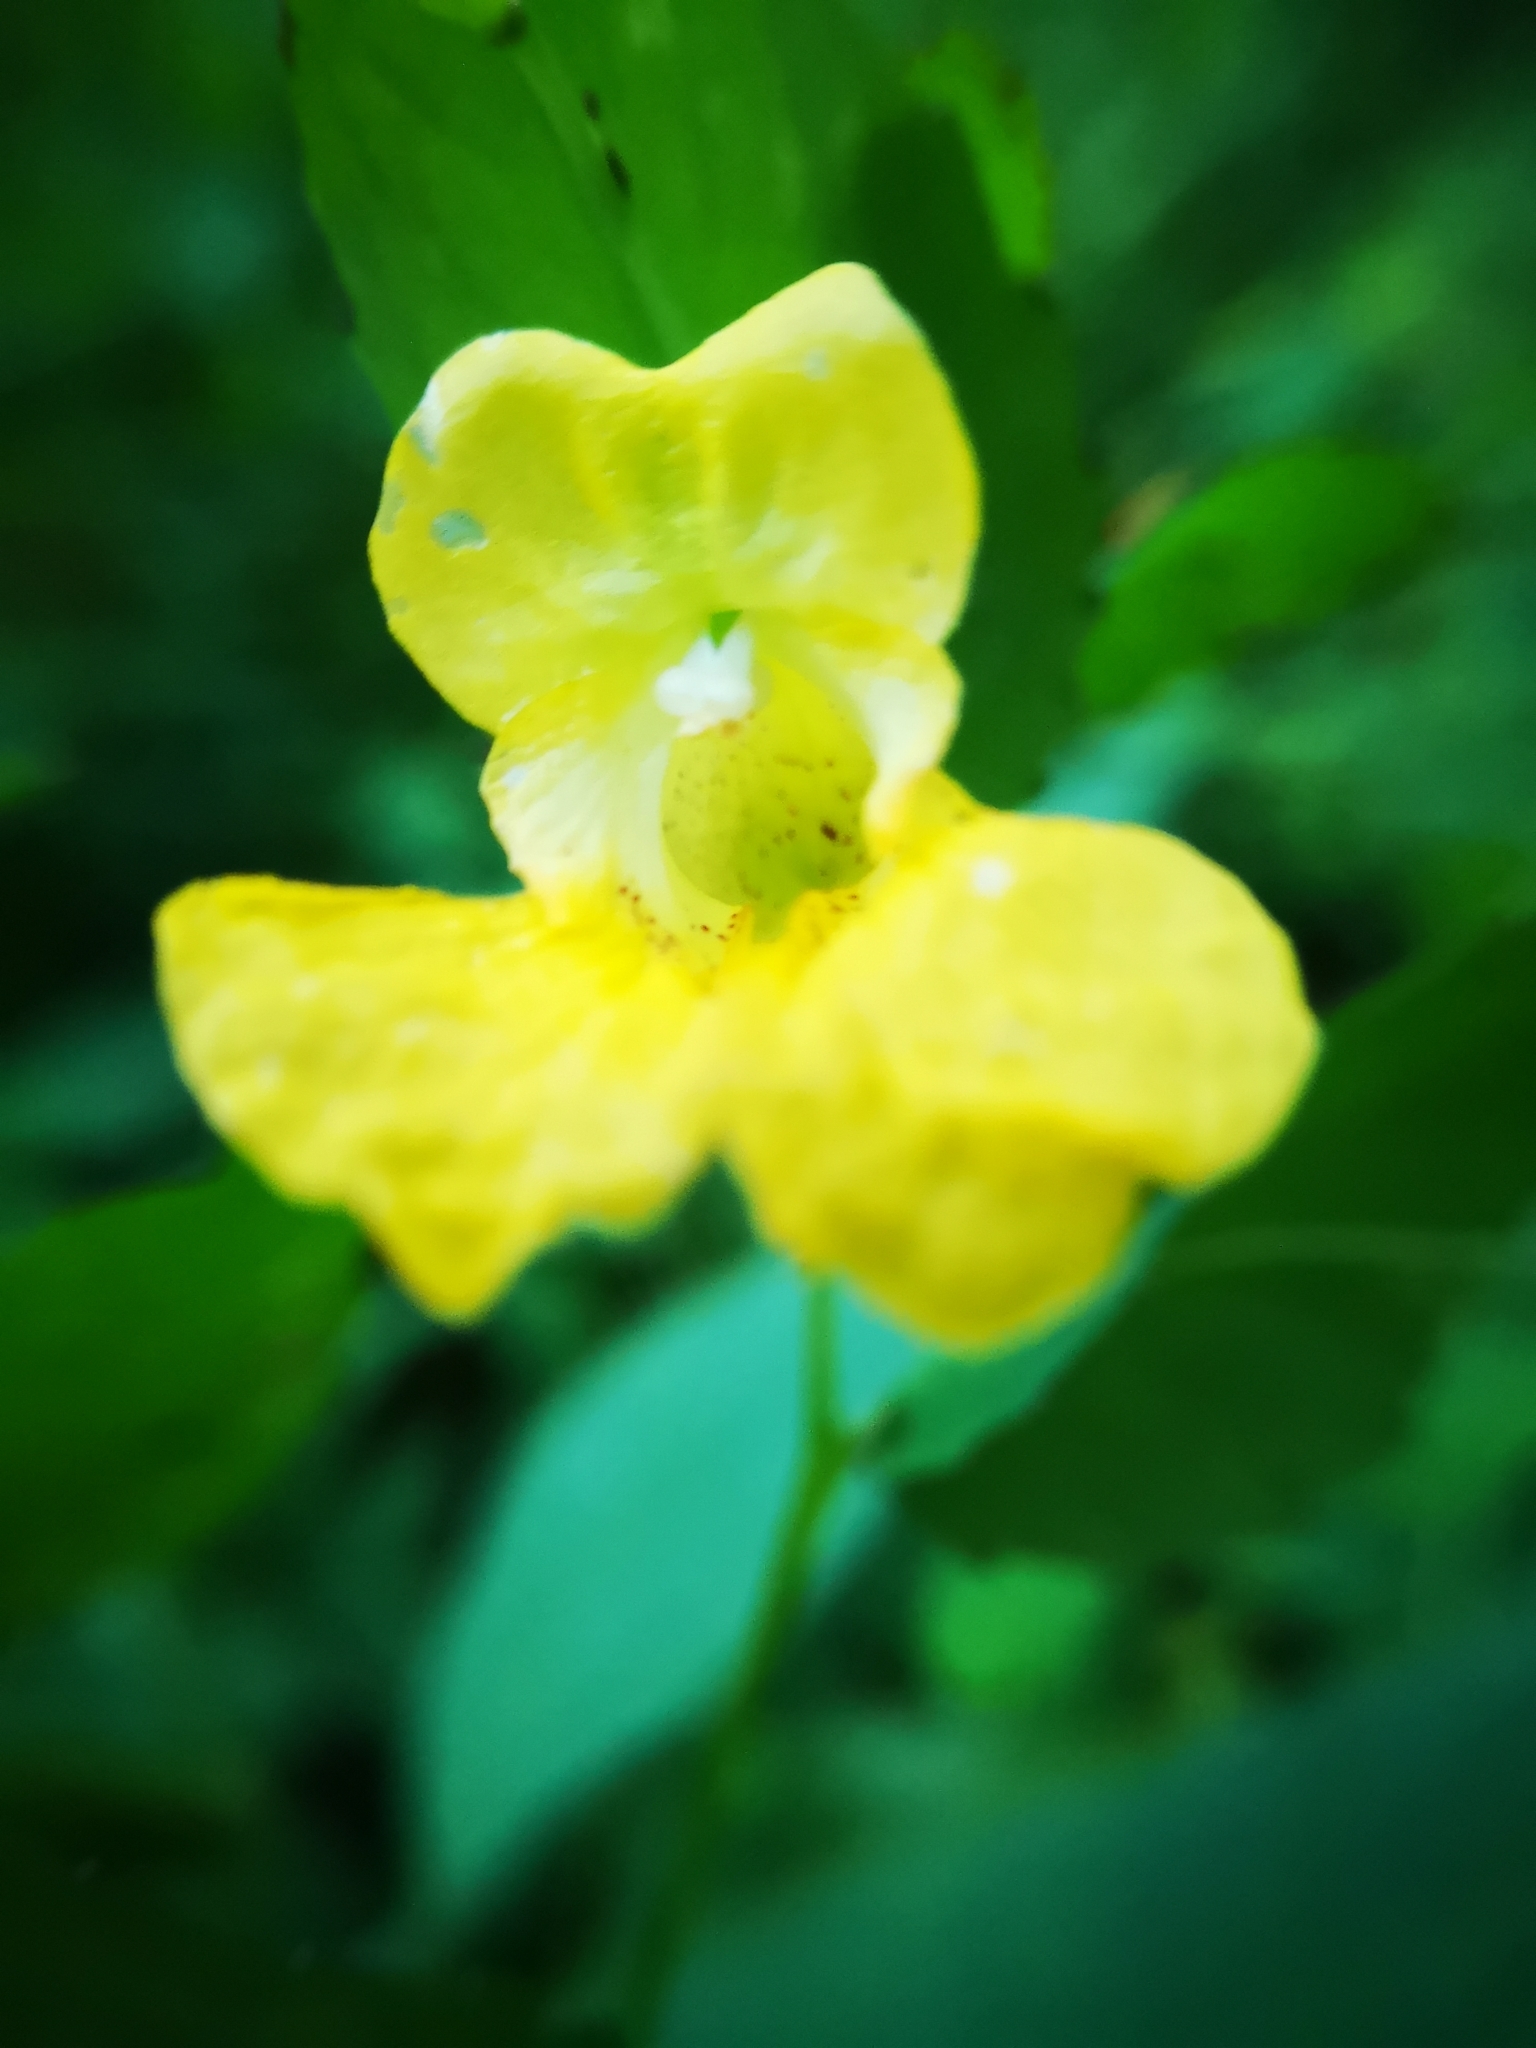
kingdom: Plantae
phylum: Tracheophyta
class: Magnoliopsida
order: Ericales
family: Balsaminaceae
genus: Impatiens
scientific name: Impatiens pallida
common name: Pale snapweed
